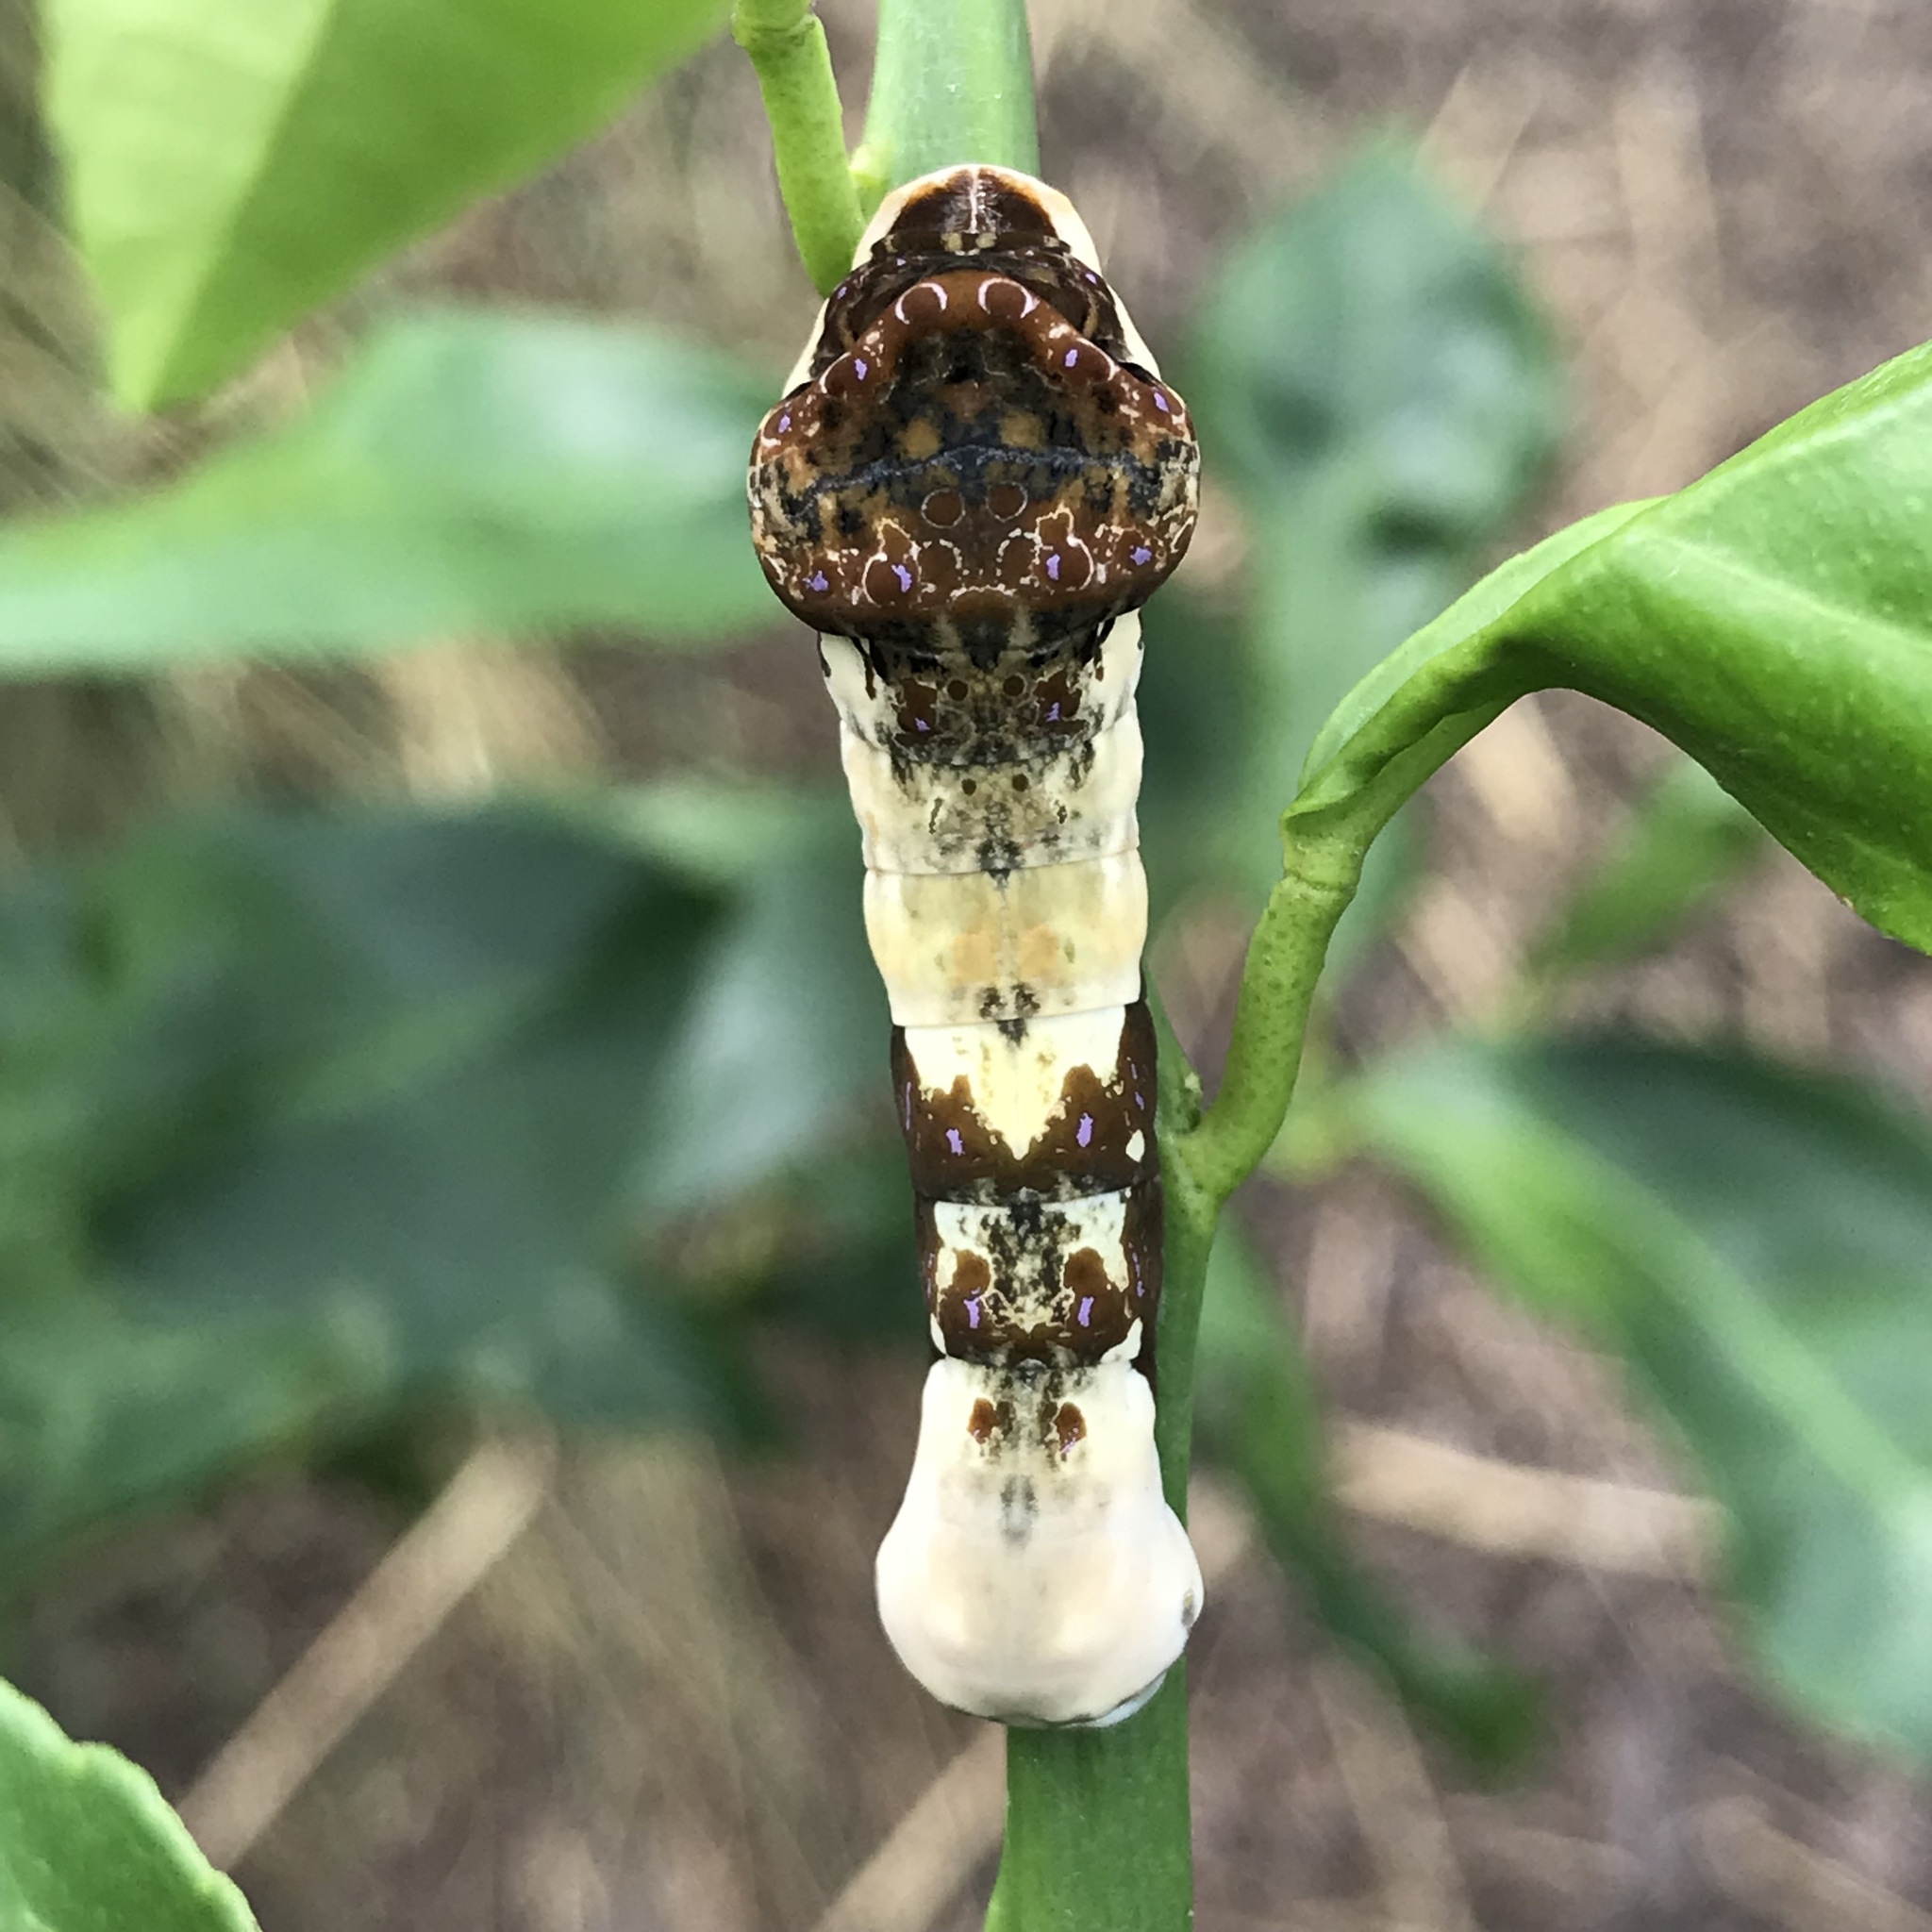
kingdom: Animalia
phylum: Arthropoda
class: Insecta
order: Lepidoptera
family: Papilionidae
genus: Papilio
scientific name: Papilio cresphontes
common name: Giant swallowtail
